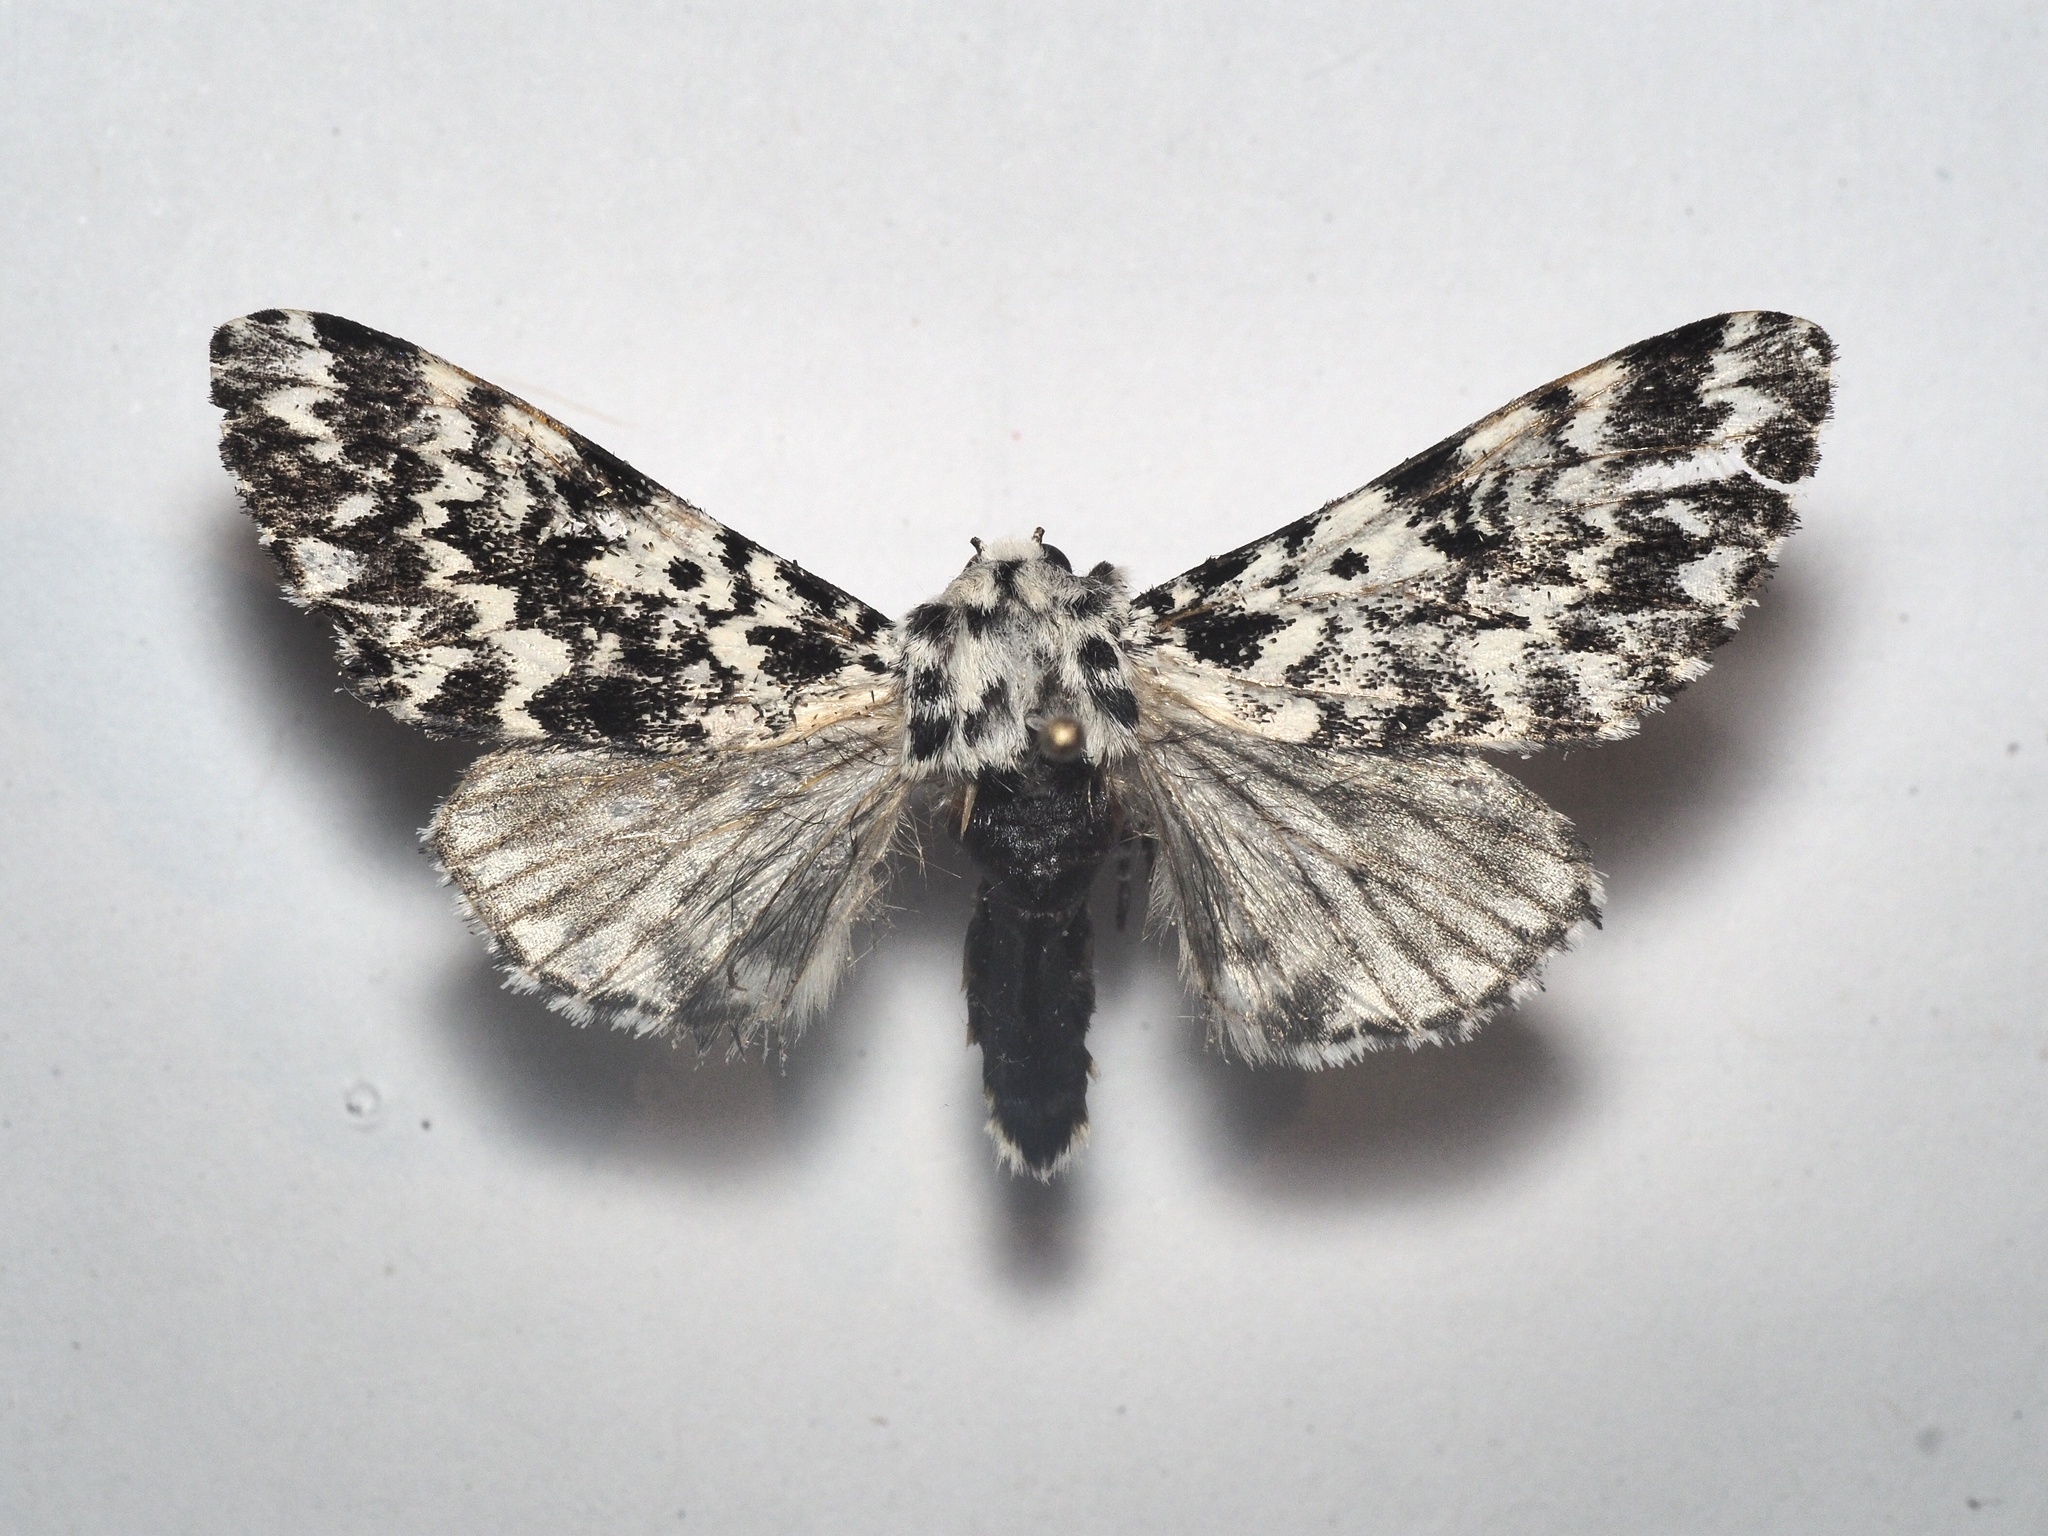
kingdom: Animalia
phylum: Arthropoda
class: Insecta
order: Lepidoptera
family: Noctuidae
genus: Panthea
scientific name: Panthea coenobita
